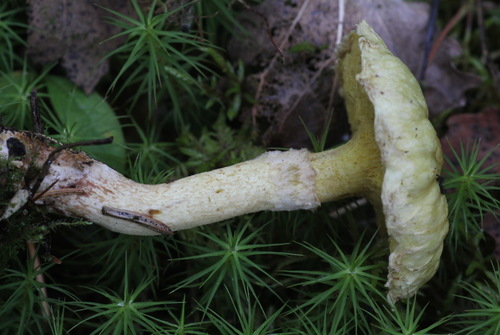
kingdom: Fungi
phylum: Basidiomycota
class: Agaricomycetes
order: Boletales
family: Suillaceae
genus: Suillus
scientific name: Suillus americanus
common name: Chicken fat mushroom
